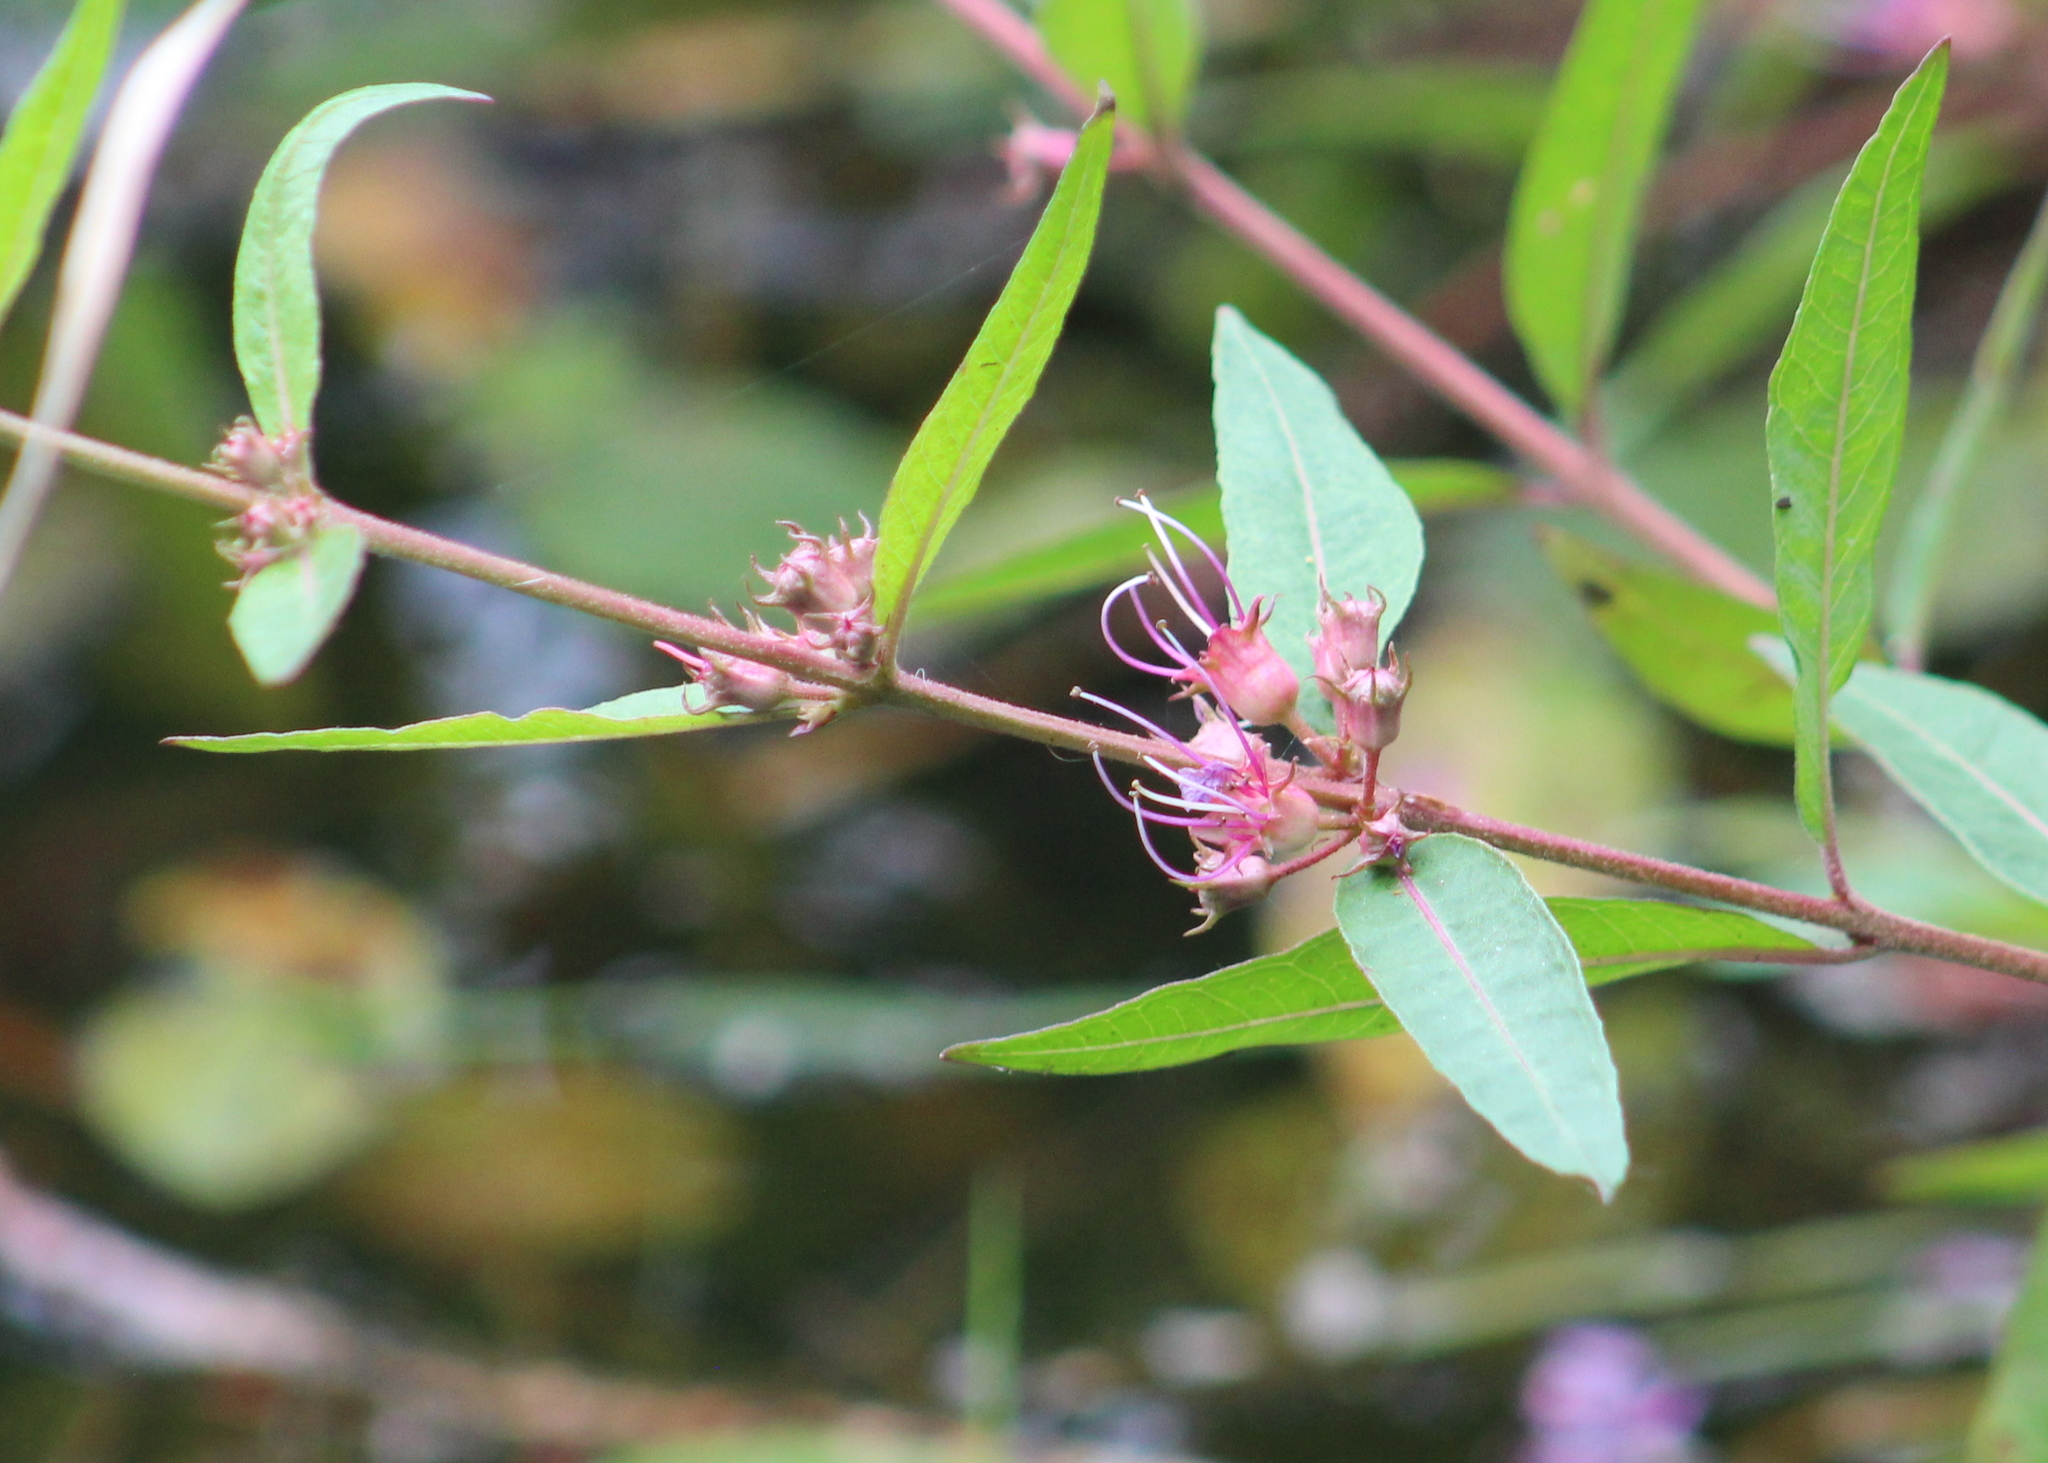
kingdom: Plantae
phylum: Tracheophyta
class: Magnoliopsida
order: Myrtales
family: Lythraceae
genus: Decodon
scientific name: Decodon verticillatus
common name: Hairy swamp loosestrife
